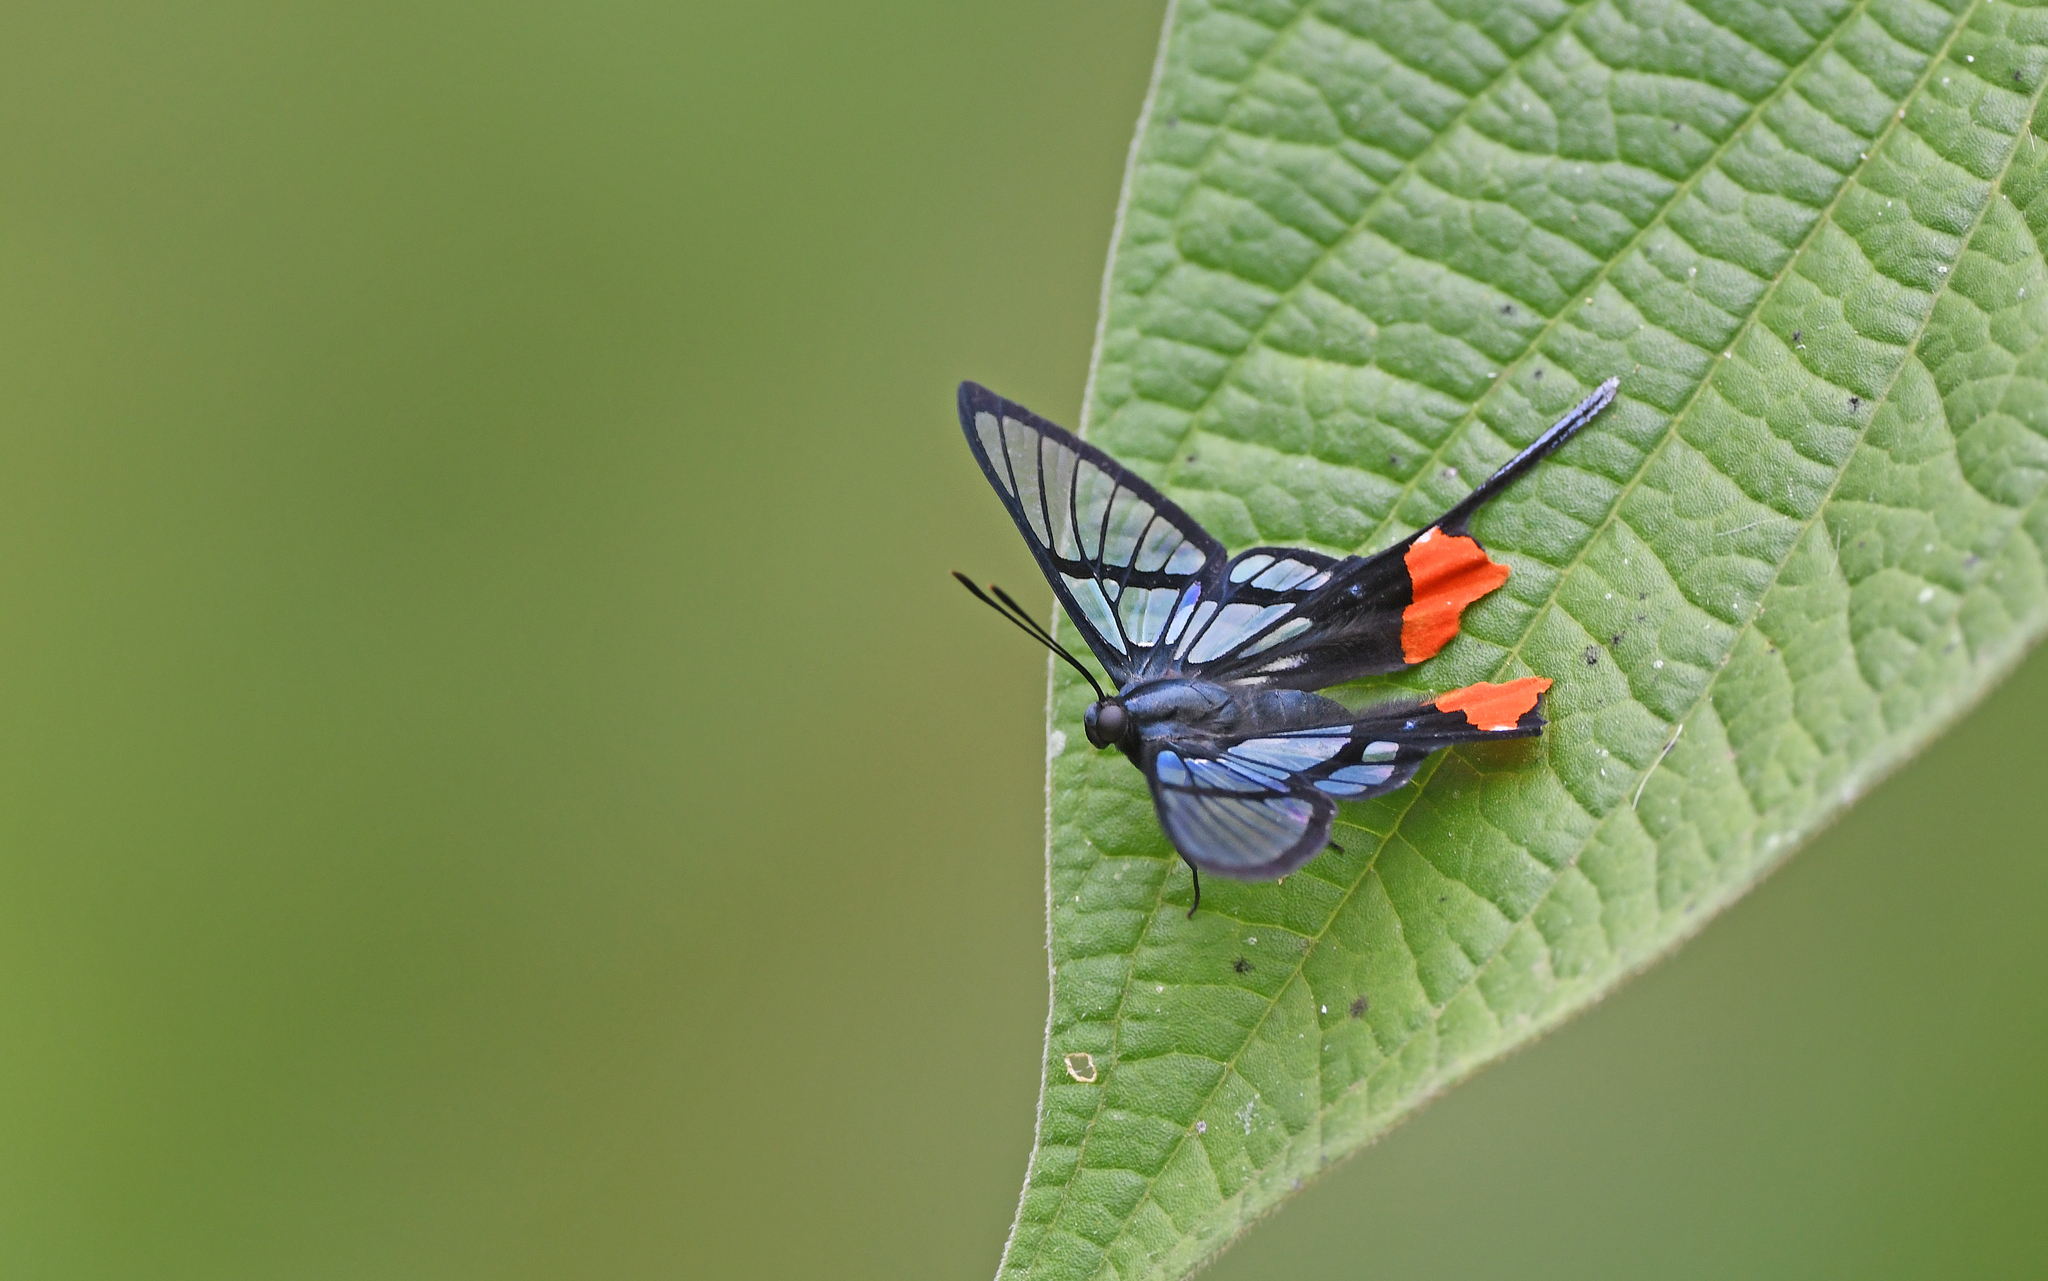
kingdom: Animalia
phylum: Arthropoda
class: Insecta
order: Lepidoptera
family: Riodinidae
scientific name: Riodinidae
